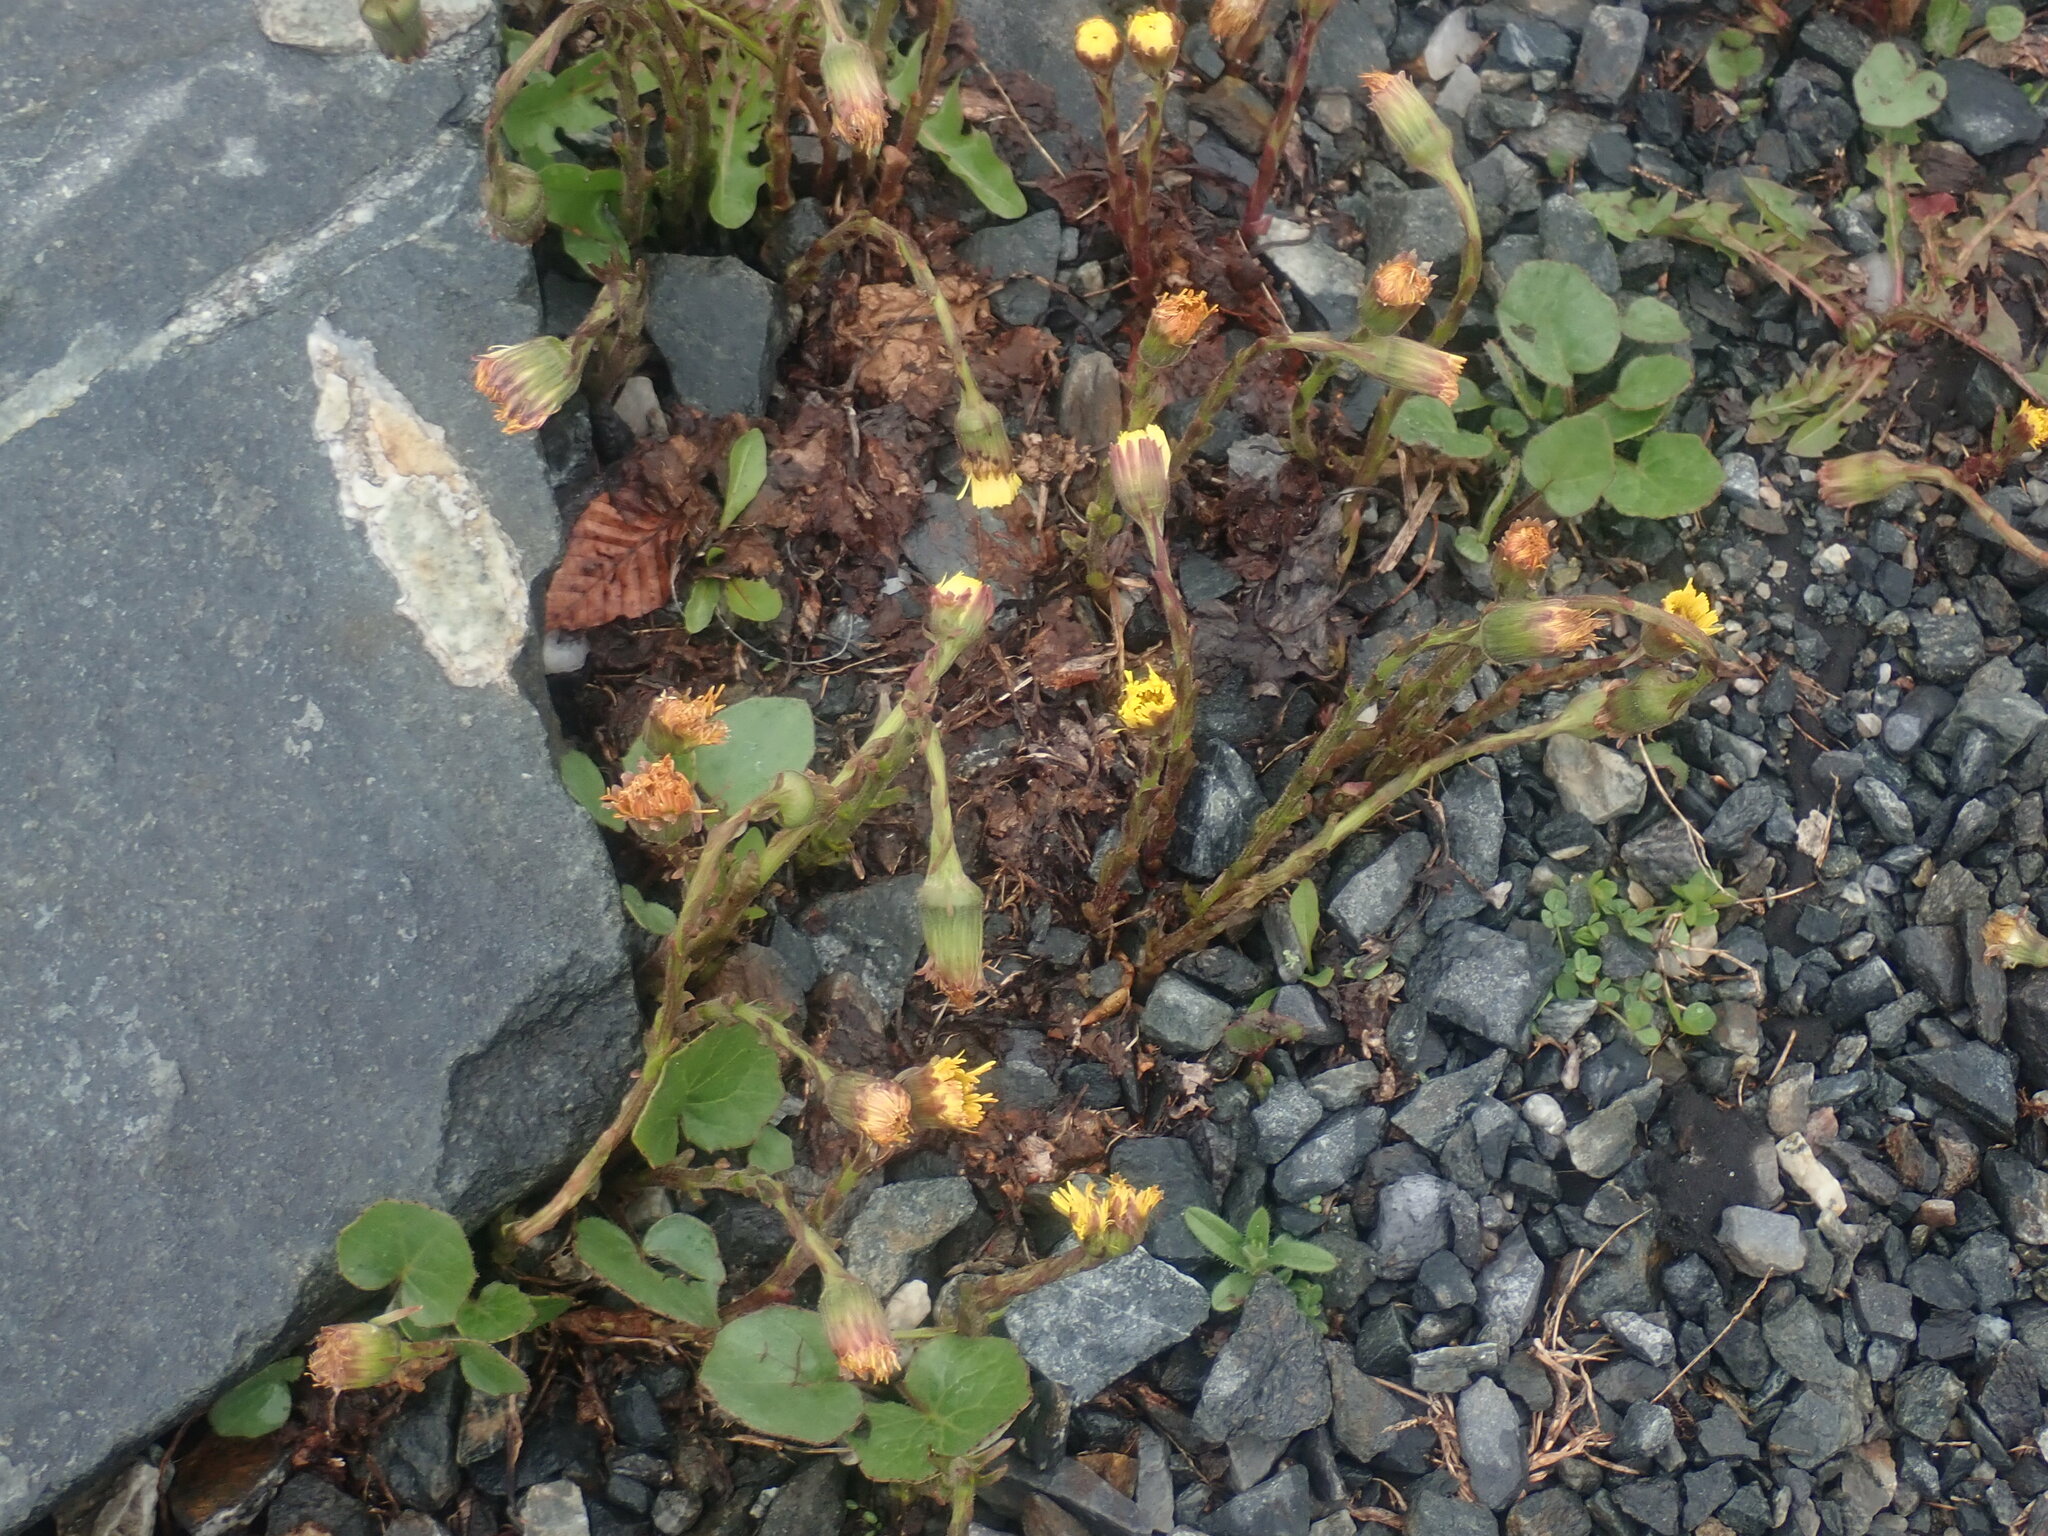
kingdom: Plantae
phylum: Tracheophyta
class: Magnoliopsida
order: Asterales
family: Asteraceae
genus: Tussilago
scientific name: Tussilago farfara
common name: Coltsfoot
